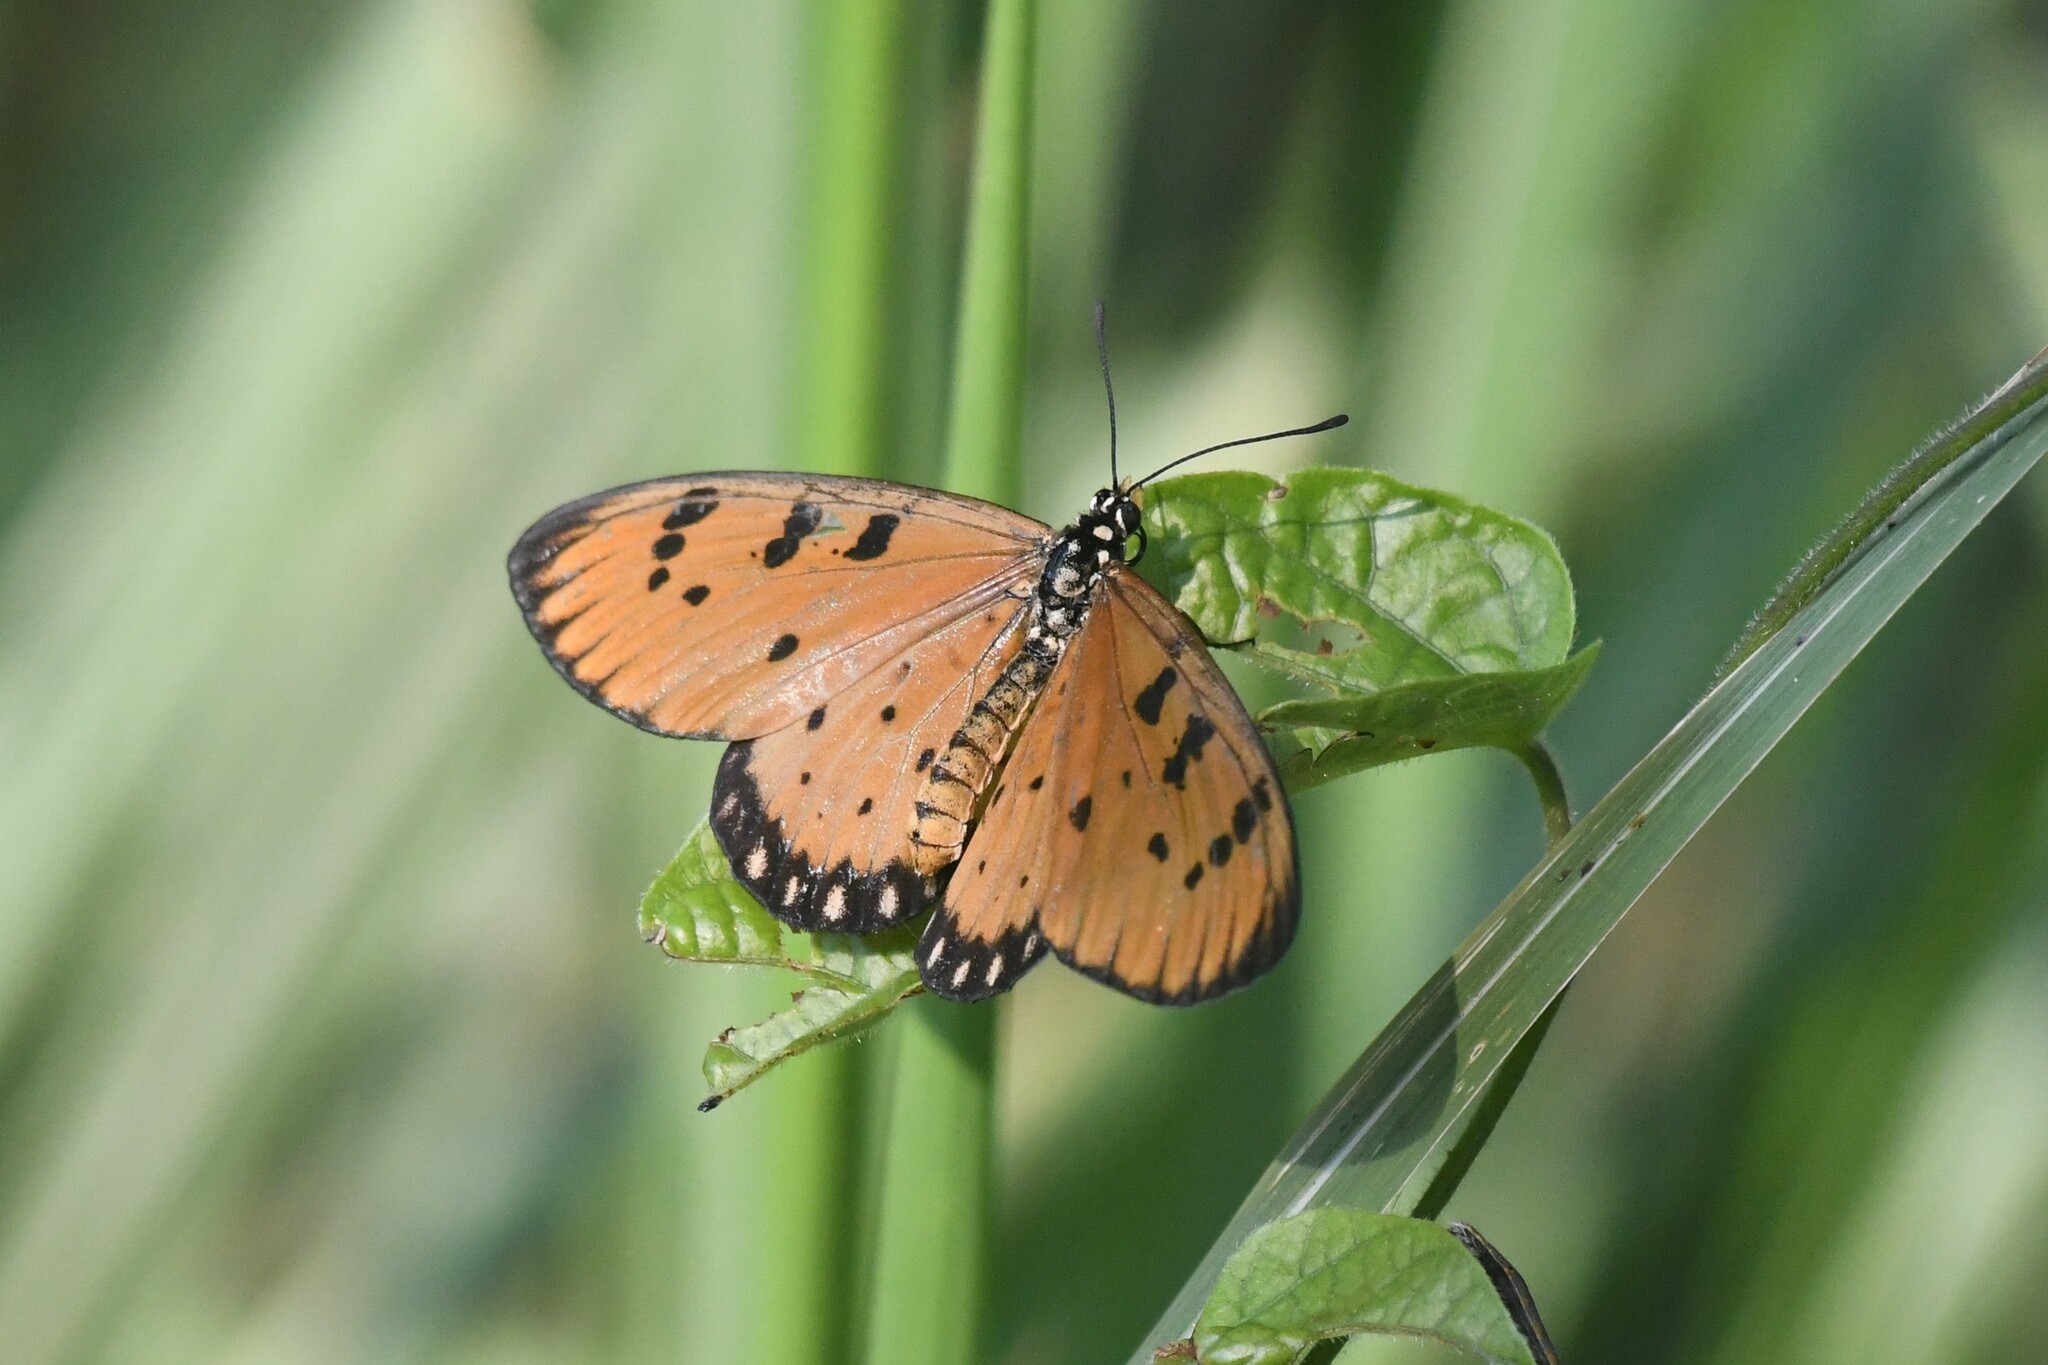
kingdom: Animalia
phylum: Arthropoda
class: Insecta
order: Lepidoptera
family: Nymphalidae
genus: Acraea
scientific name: Acraea terpsicore
